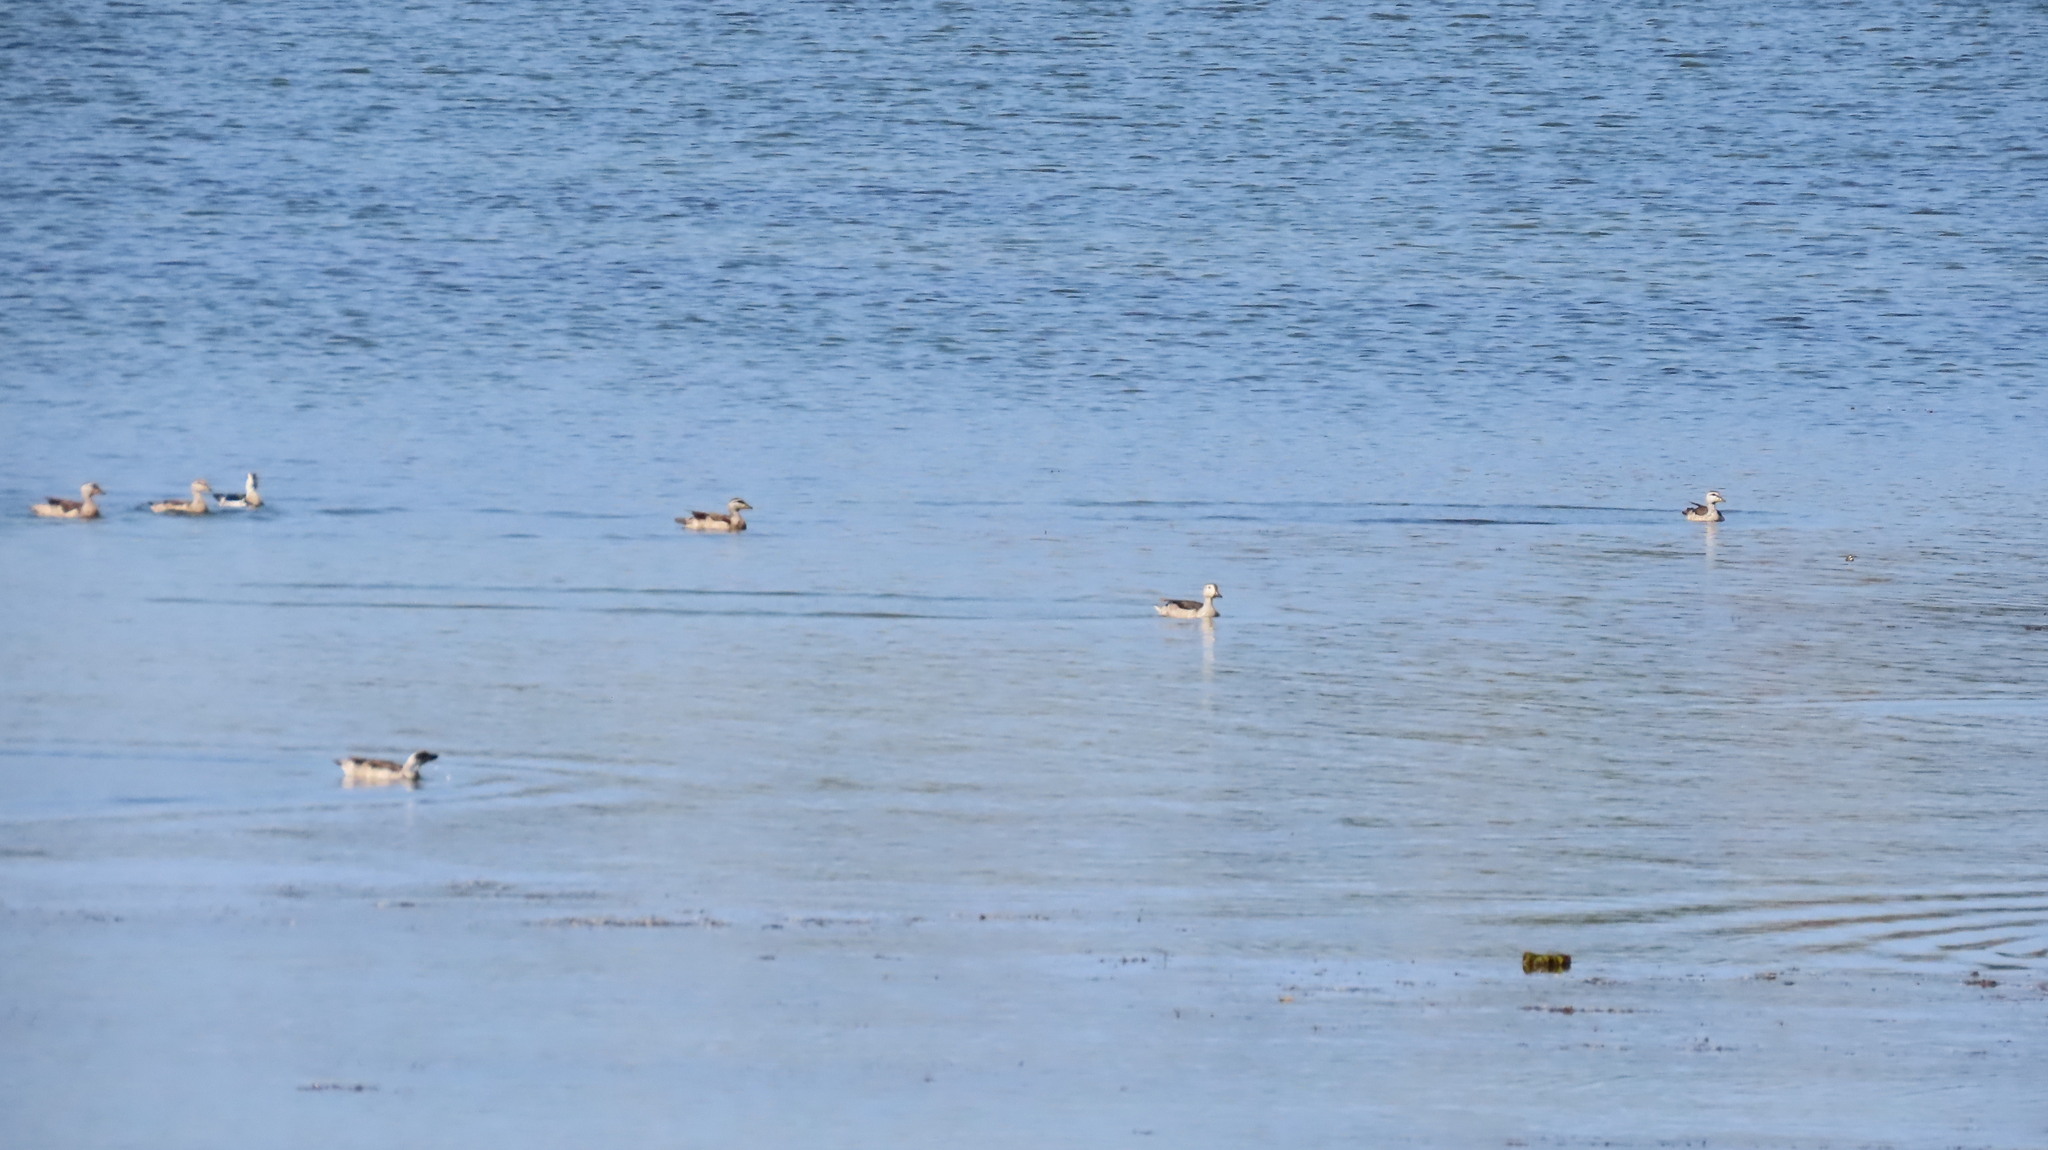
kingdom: Animalia
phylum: Chordata
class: Aves
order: Anseriformes
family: Anatidae
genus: Nettapus
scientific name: Nettapus coromandelianus
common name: Cotton pygmy-goose
